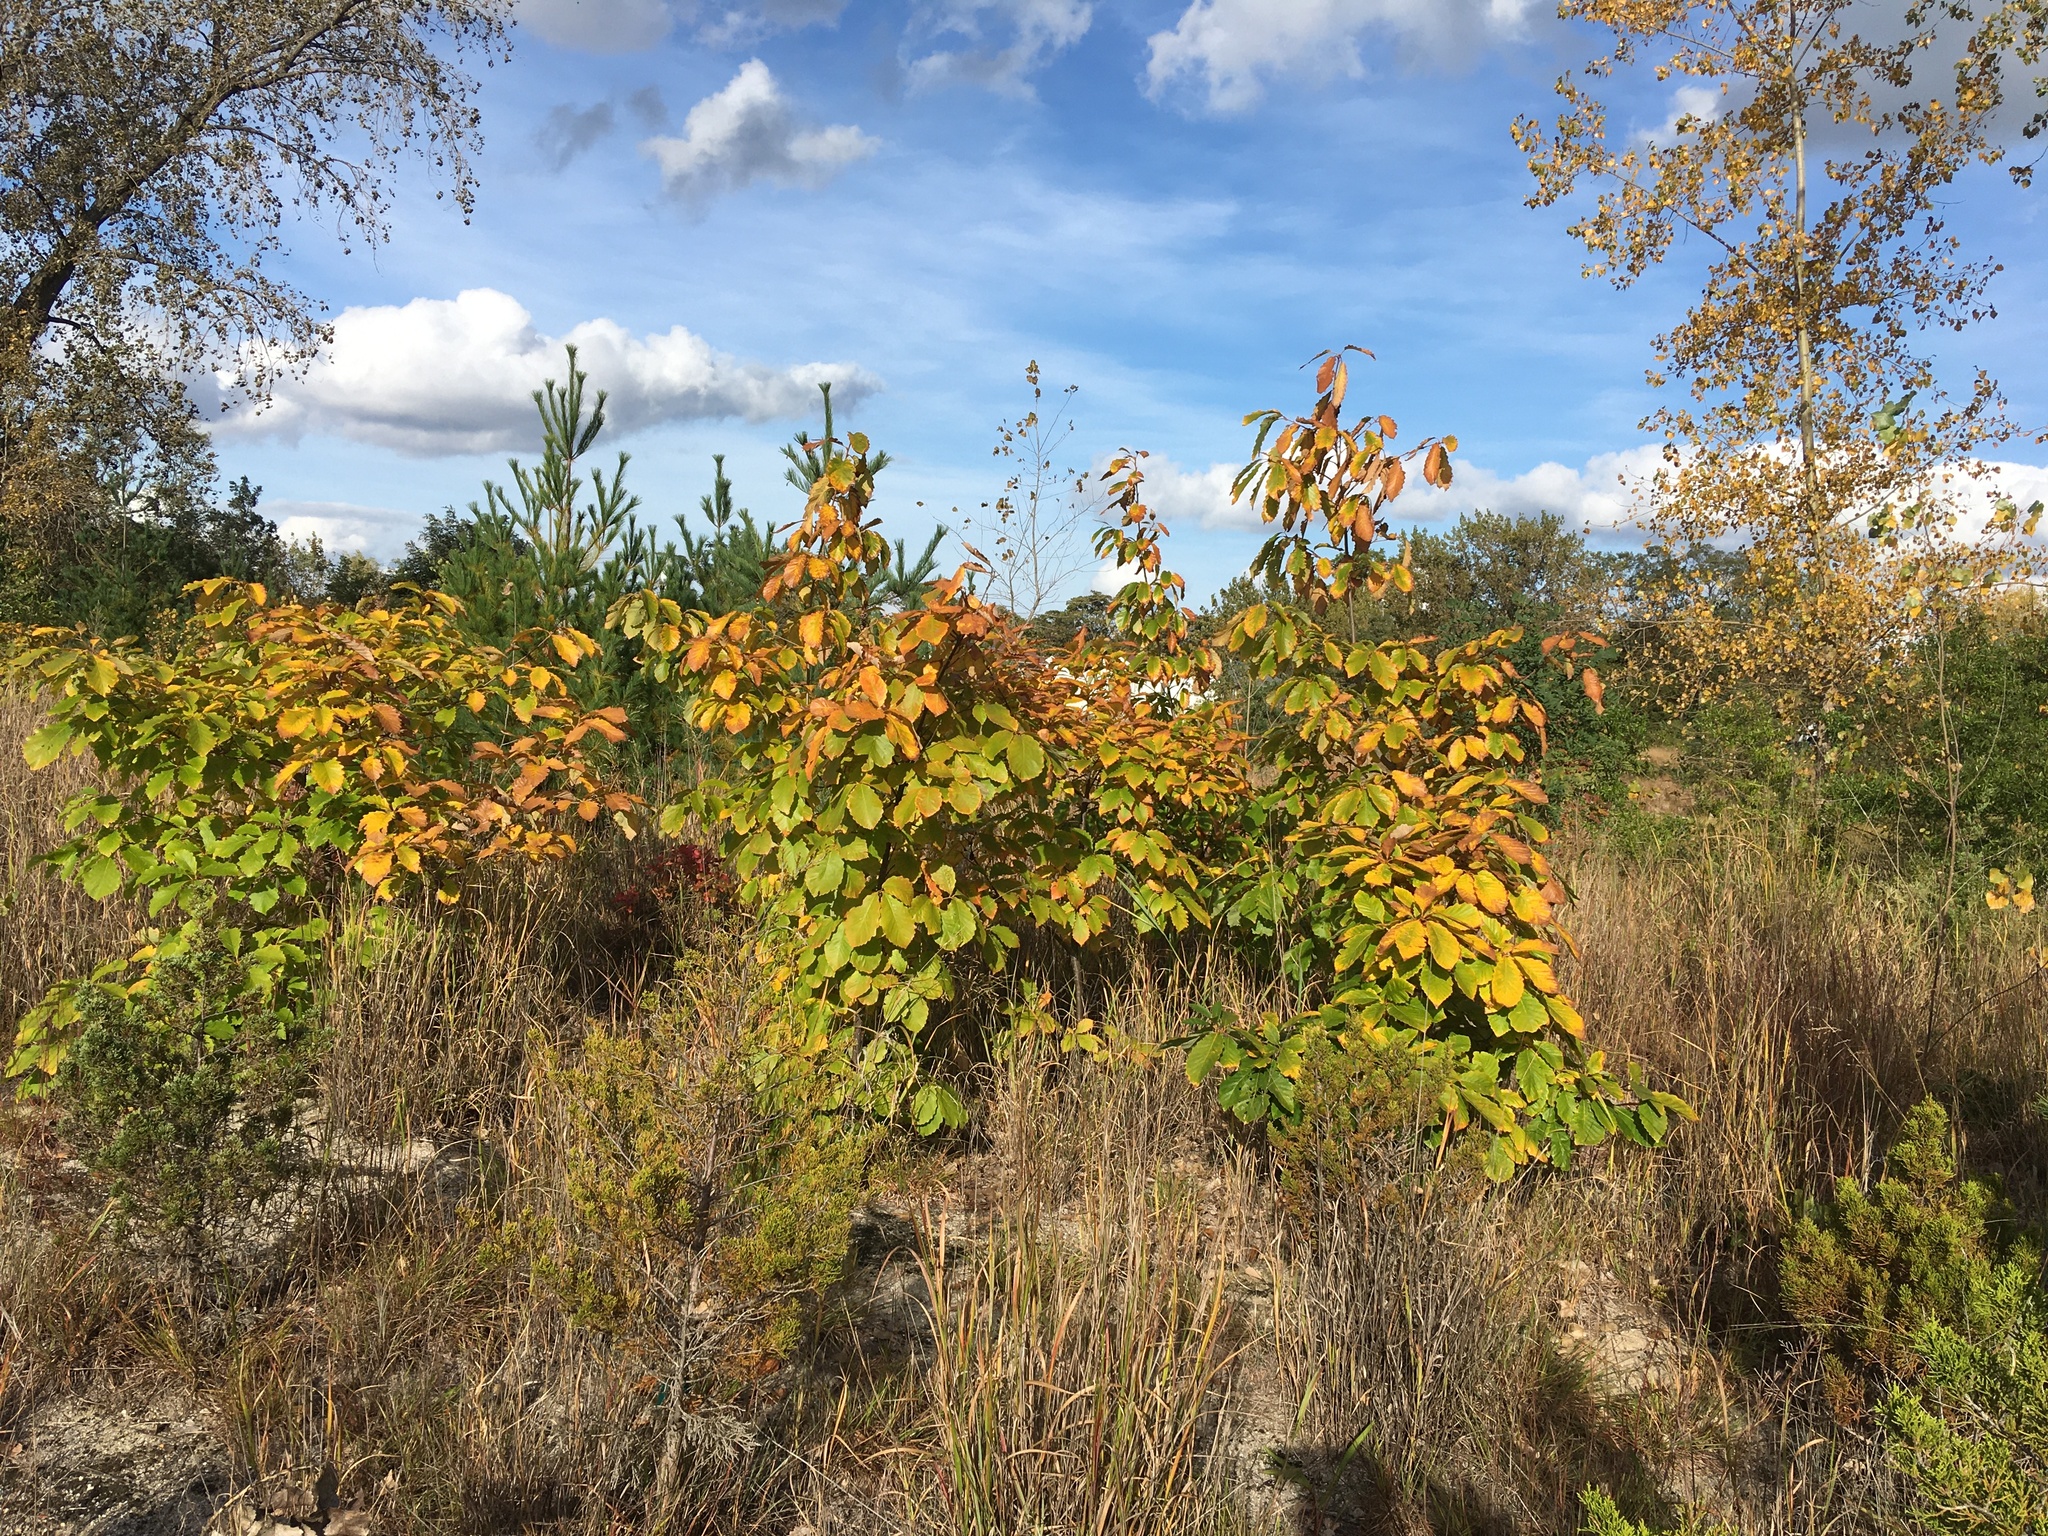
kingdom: Plantae
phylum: Tracheophyta
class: Magnoliopsida
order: Fagales
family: Fagaceae
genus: Quercus
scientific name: Quercus montana
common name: Chestnut oak
